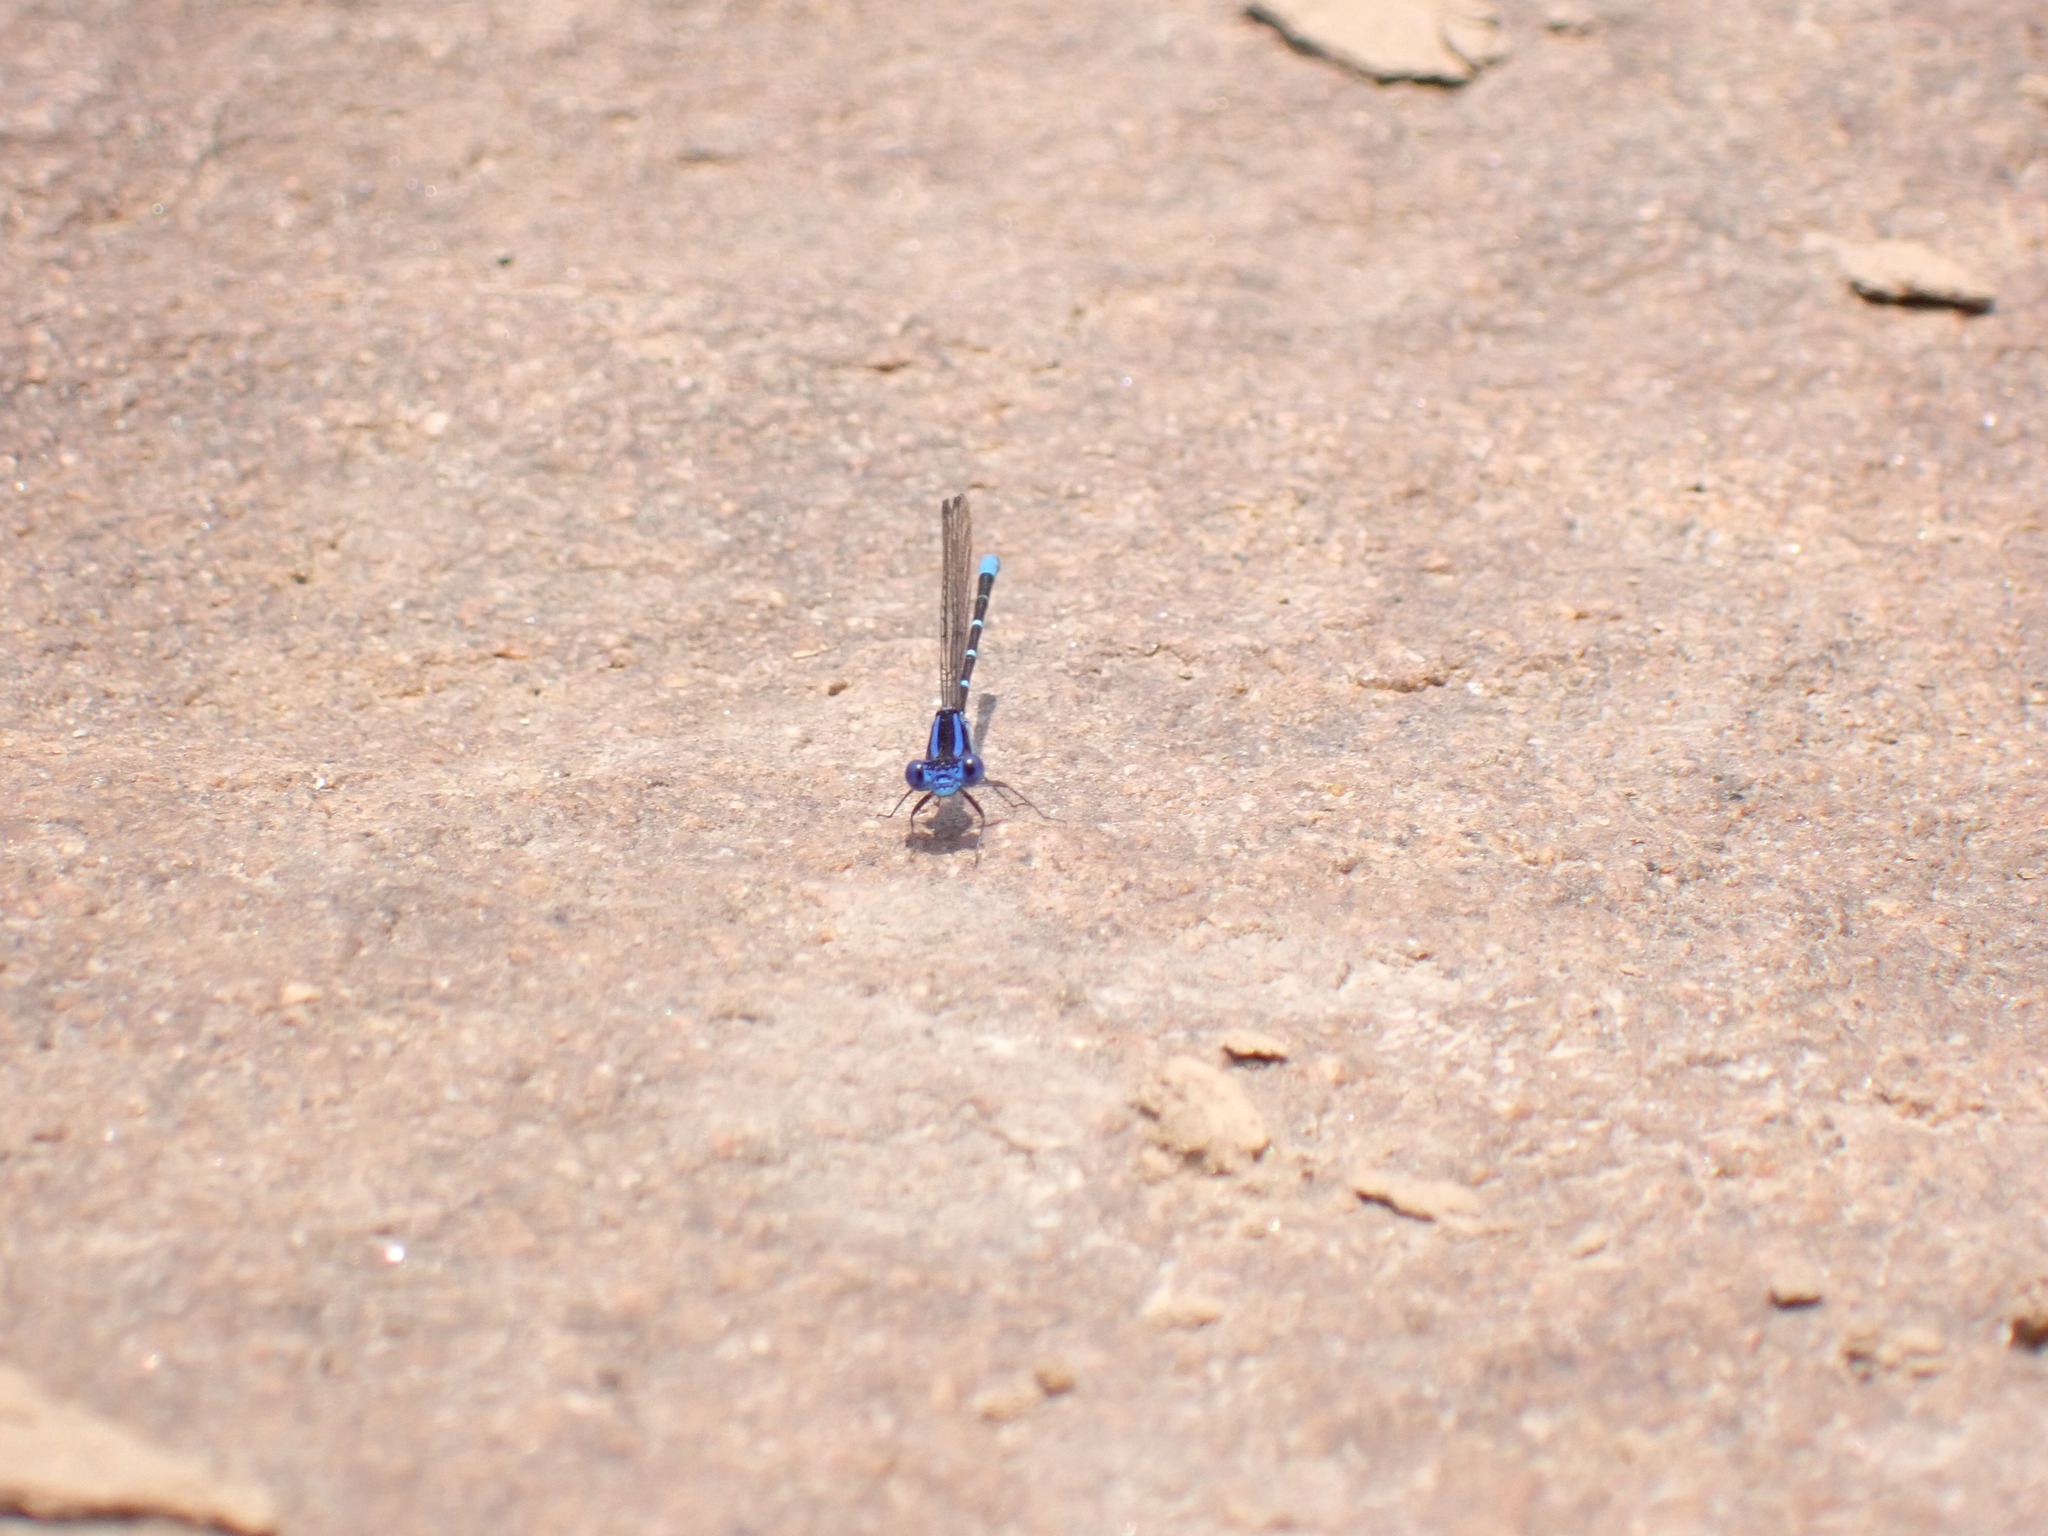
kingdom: Animalia
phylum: Arthropoda
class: Insecta
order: Odonata
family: Coenagrionidae
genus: Argia
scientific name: Argia sedula
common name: Blue-ringed dancer
